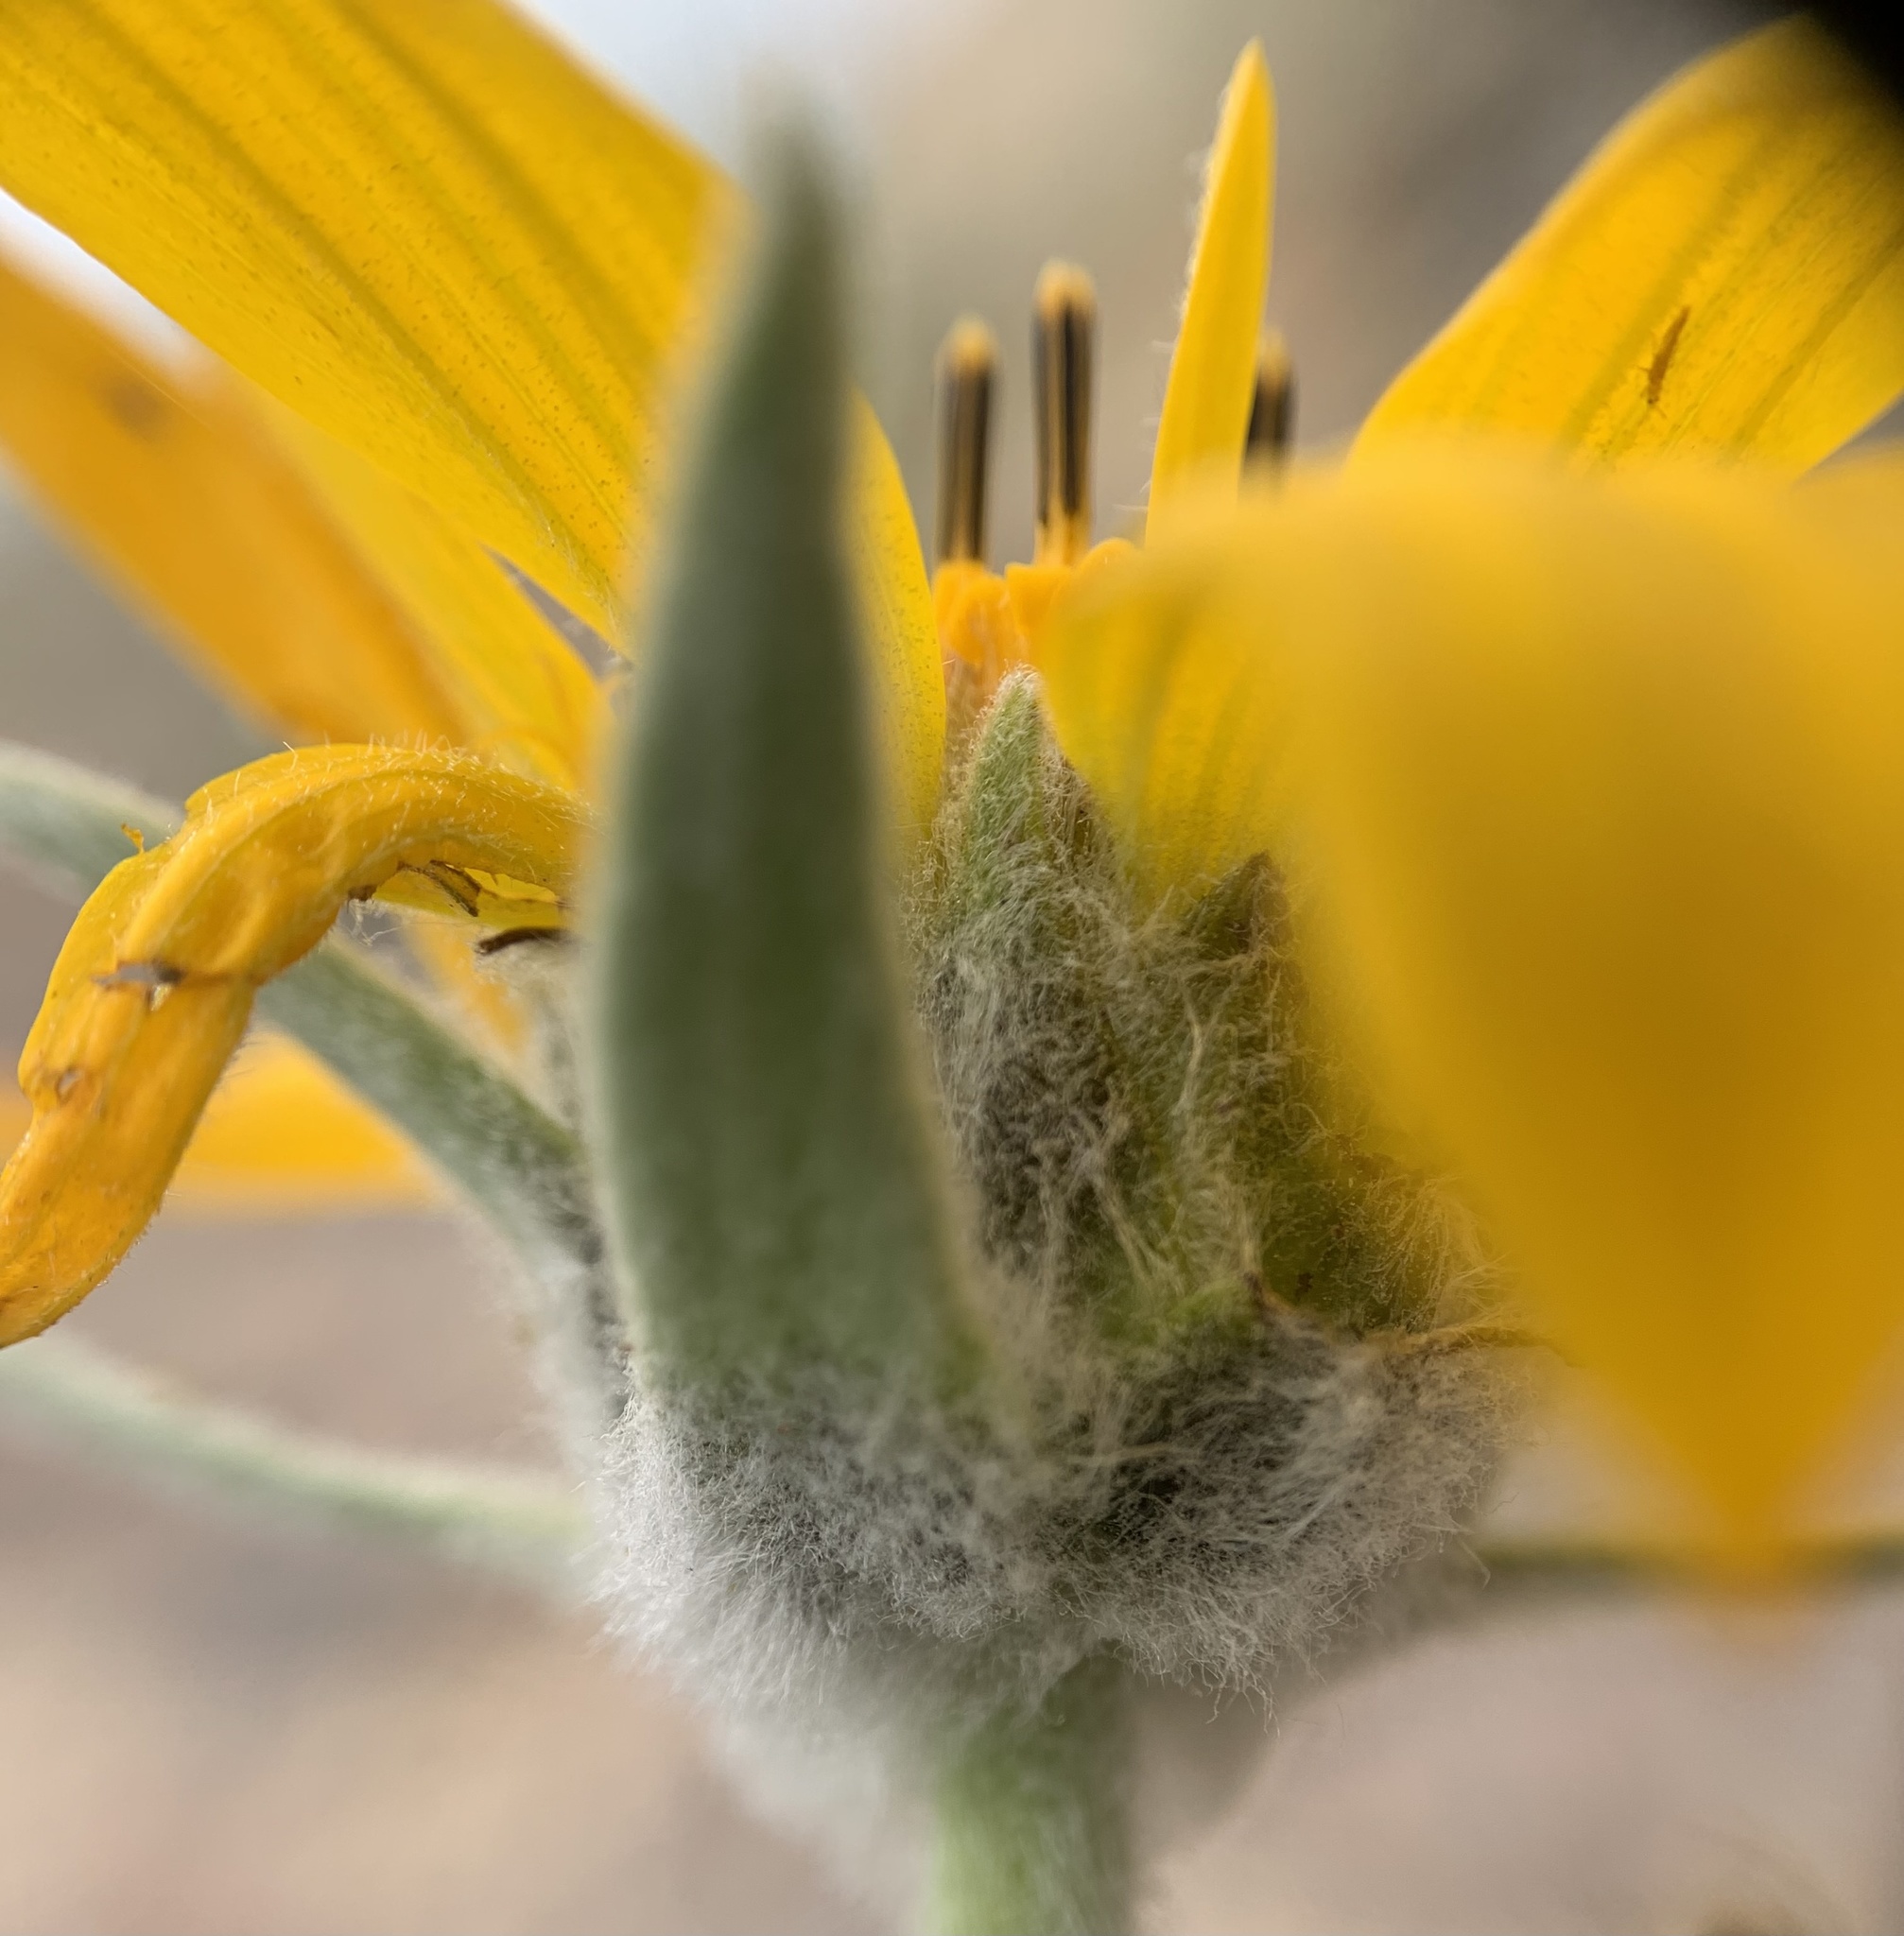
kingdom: Plantae
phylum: Tracheophyta
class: Magnoliopsida
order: Asterales
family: Asteraceae
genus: Wyethia
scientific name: Wyethia sagittata
